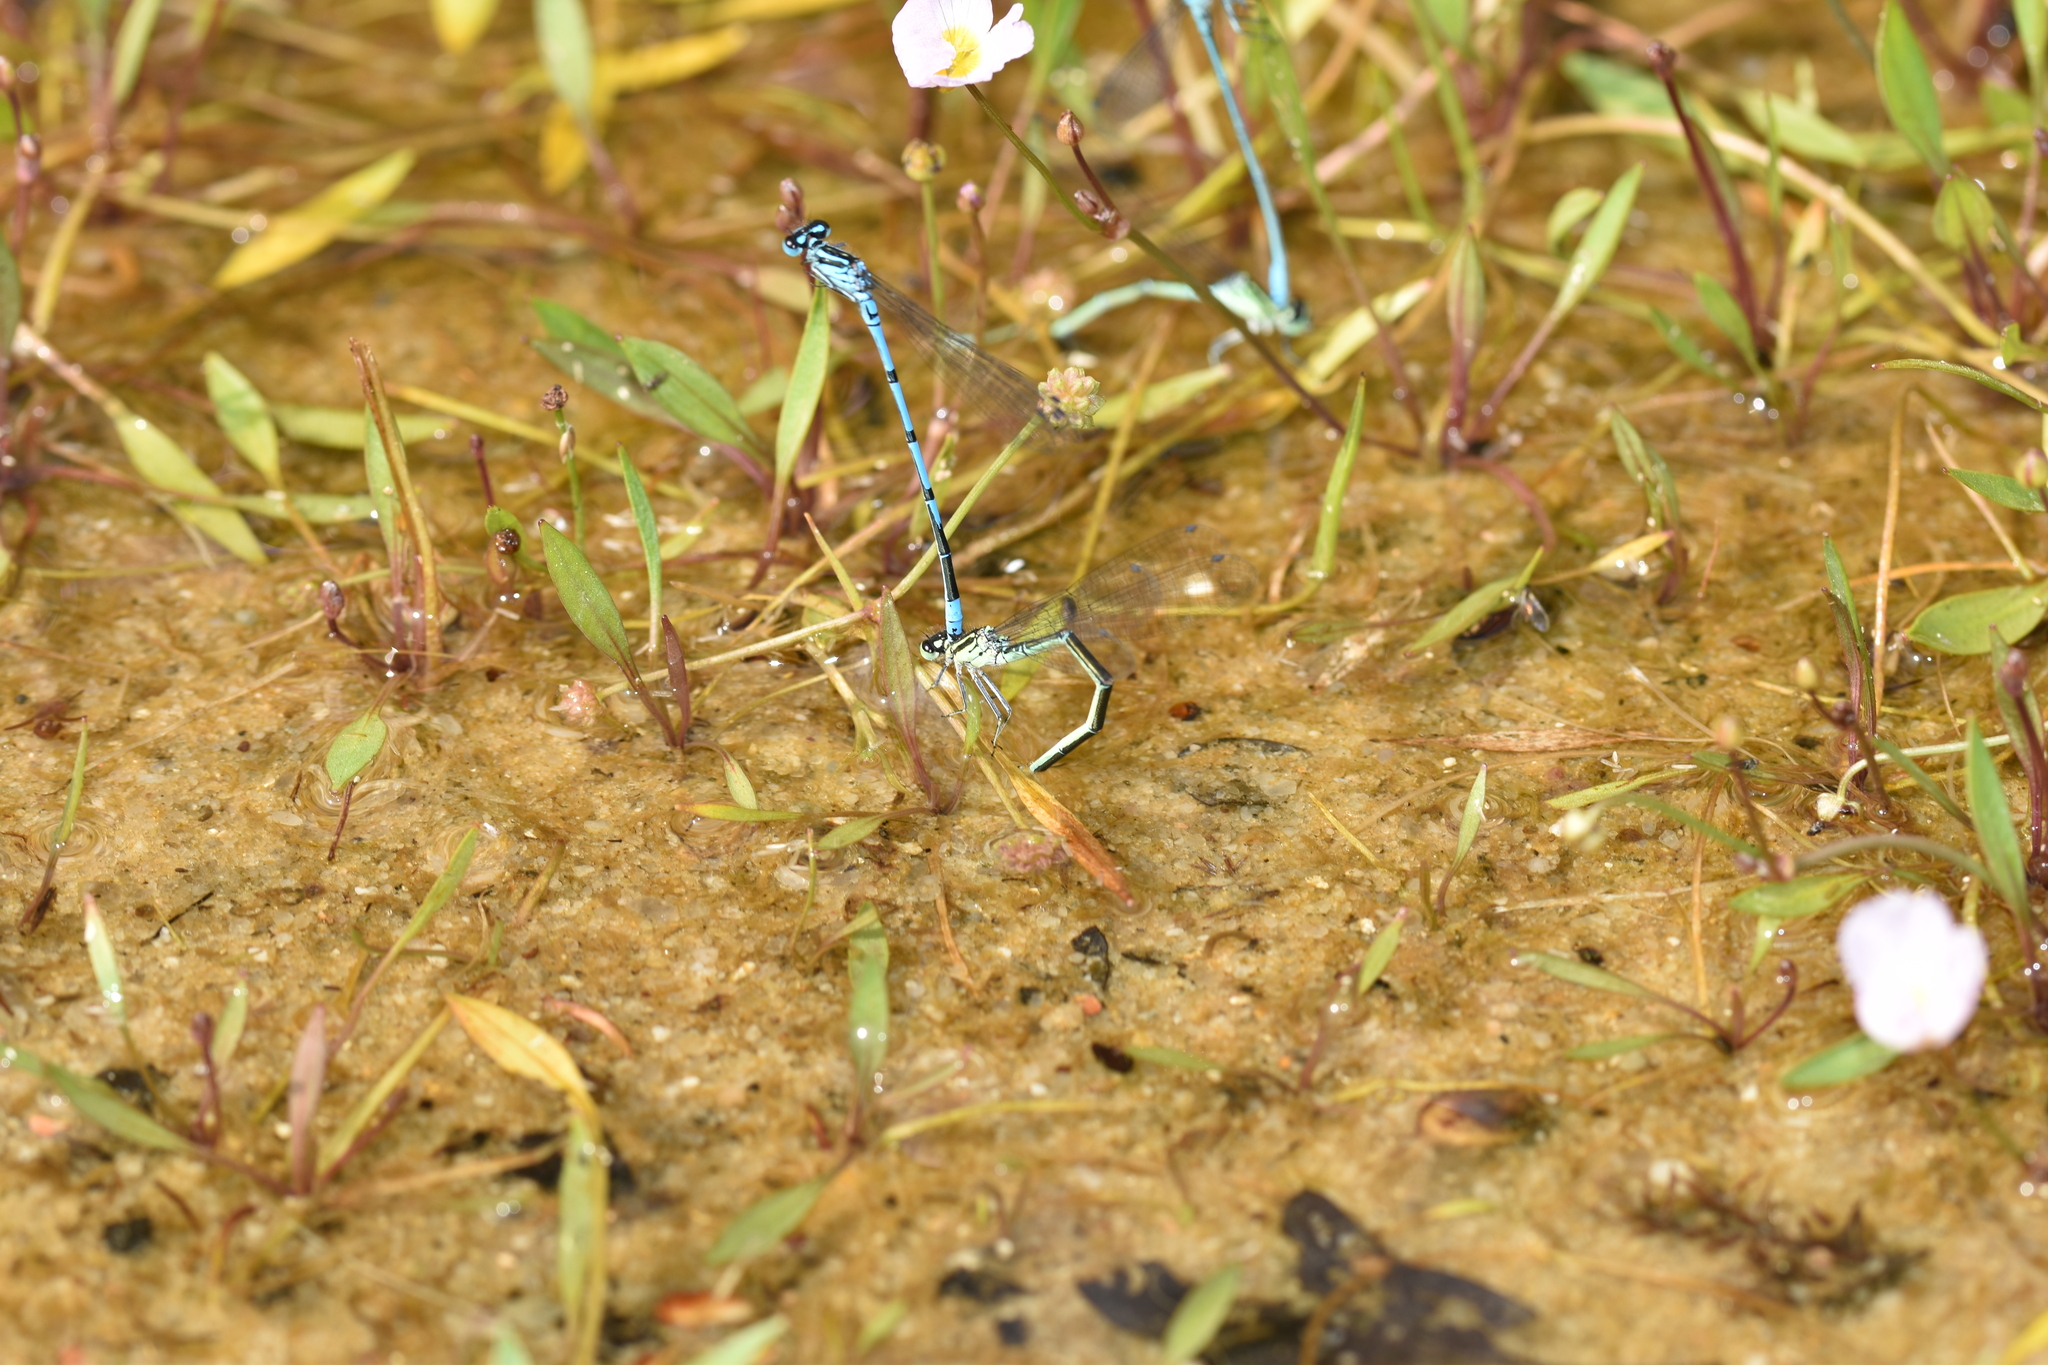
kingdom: Animalia
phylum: Arthropoda
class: Insecta
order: Odonata
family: Coenagrionidae
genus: Coenagrion
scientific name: Coenagrion puella
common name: Azure damselfly
